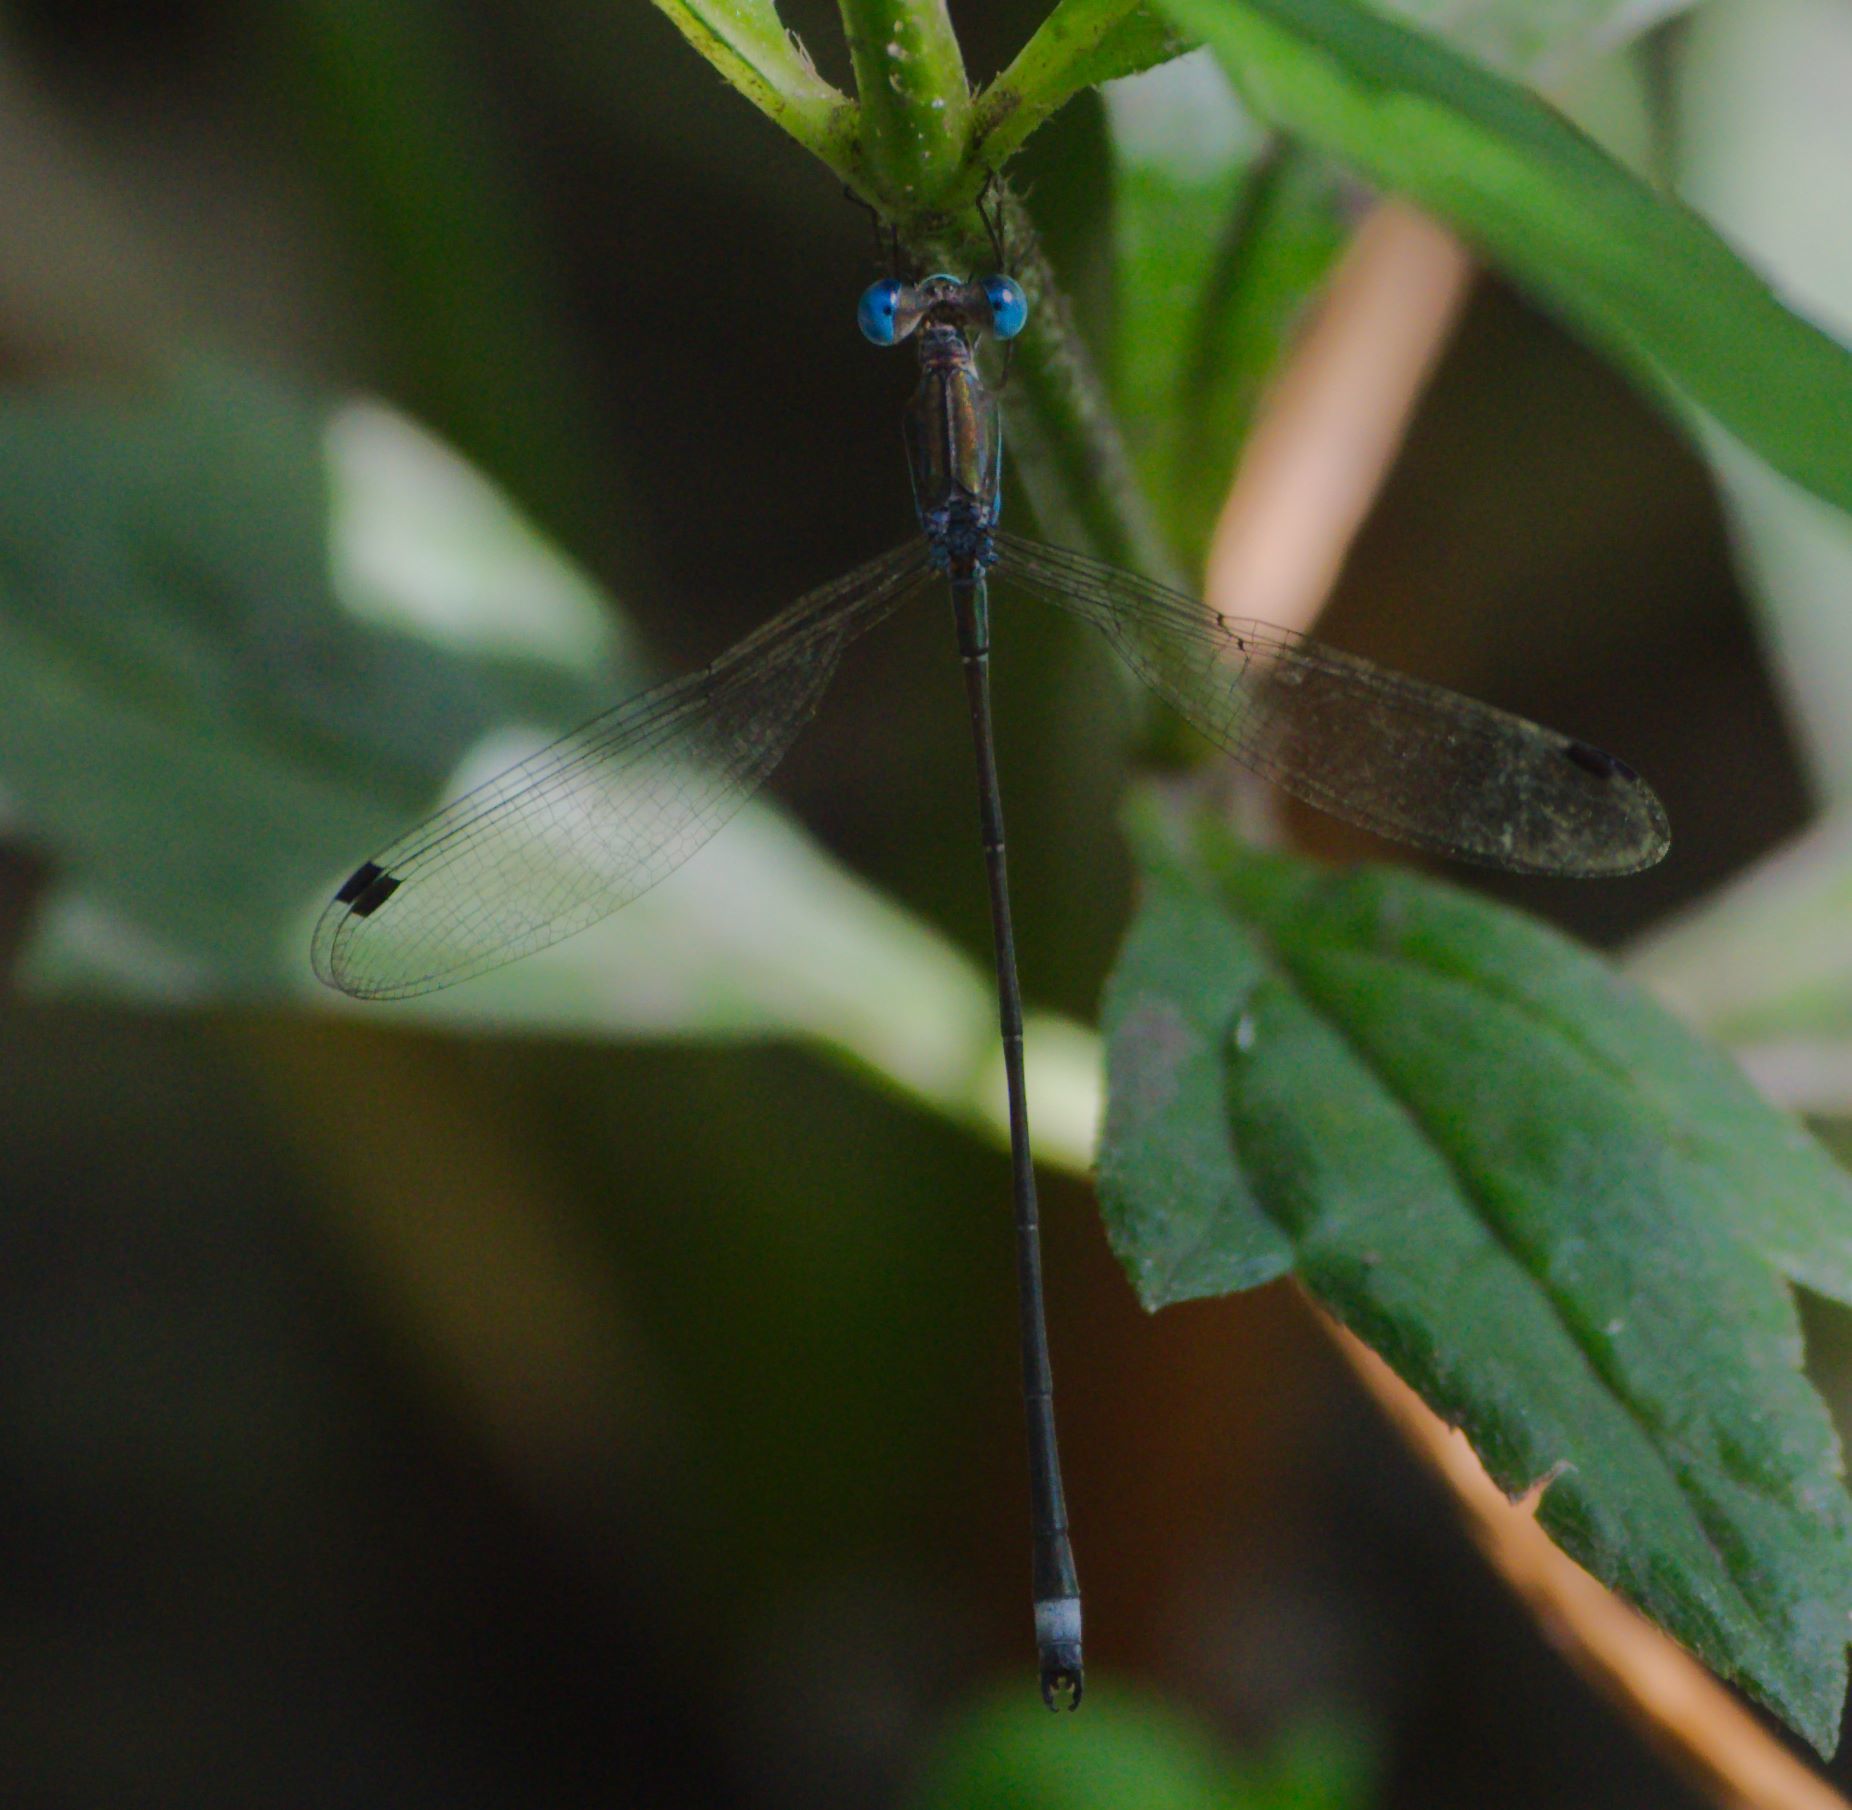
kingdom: Animalia
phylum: Arthropoda
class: Insecta
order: Odonata
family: Lestidae
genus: Lestes
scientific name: Lestes tenuatus
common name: Blue-striped spreadwing
